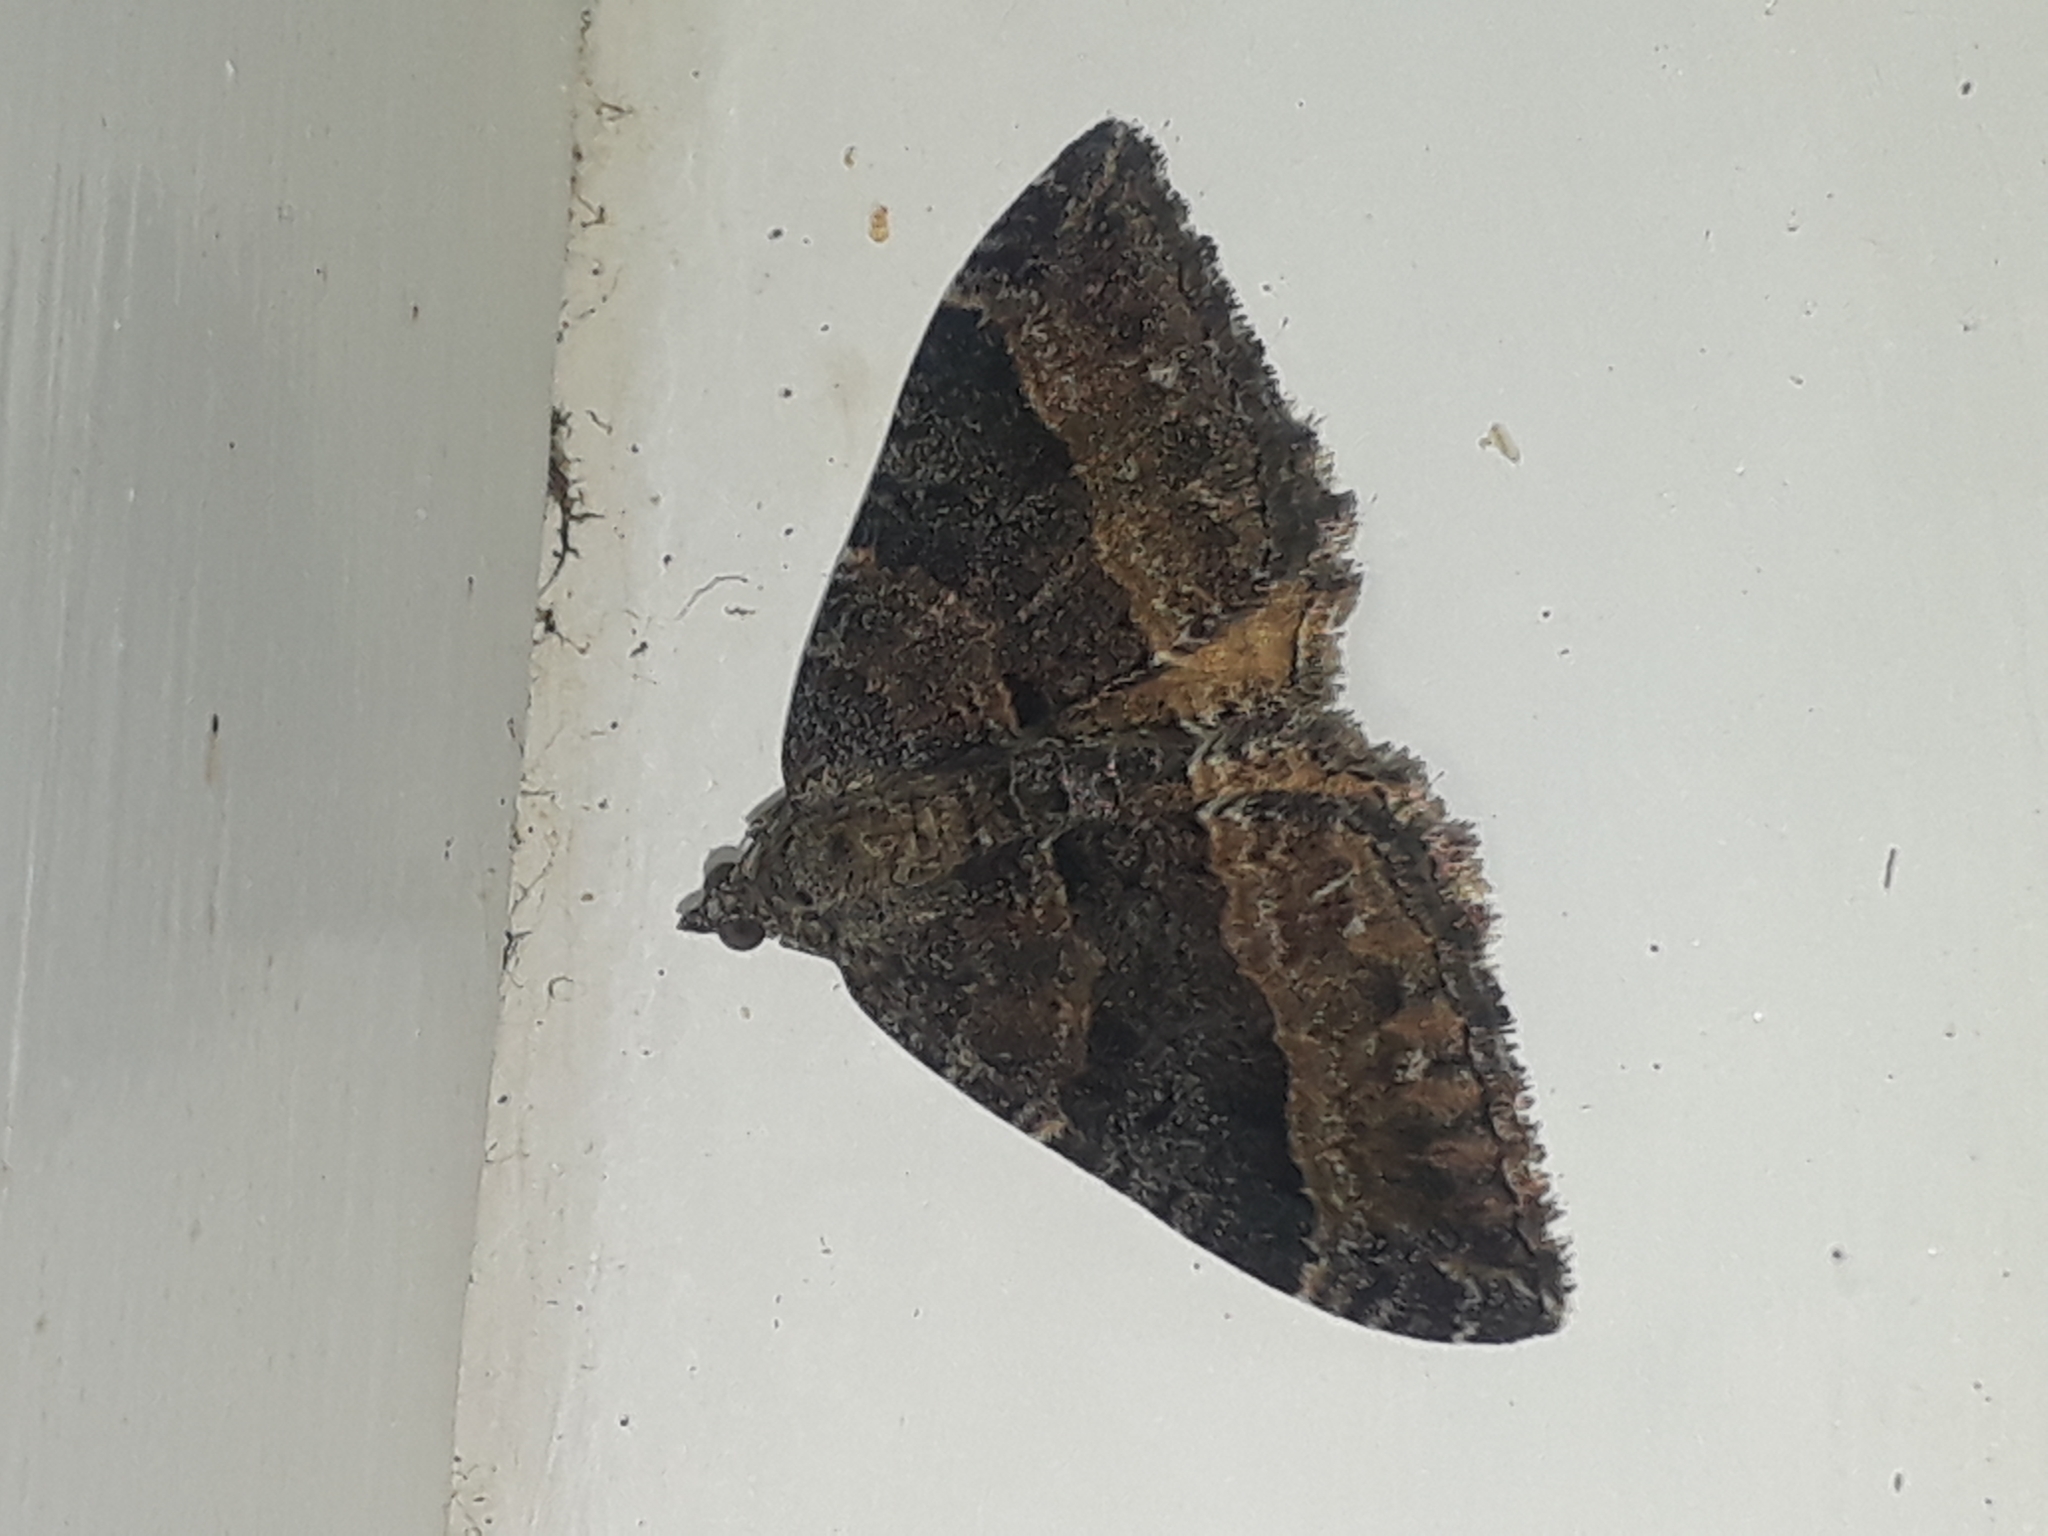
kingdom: Animalia
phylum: Arthropoda
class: Insecta
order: Lepidoptera
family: Geometridae
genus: Hydriomena
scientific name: Hydriomena deltoidata
